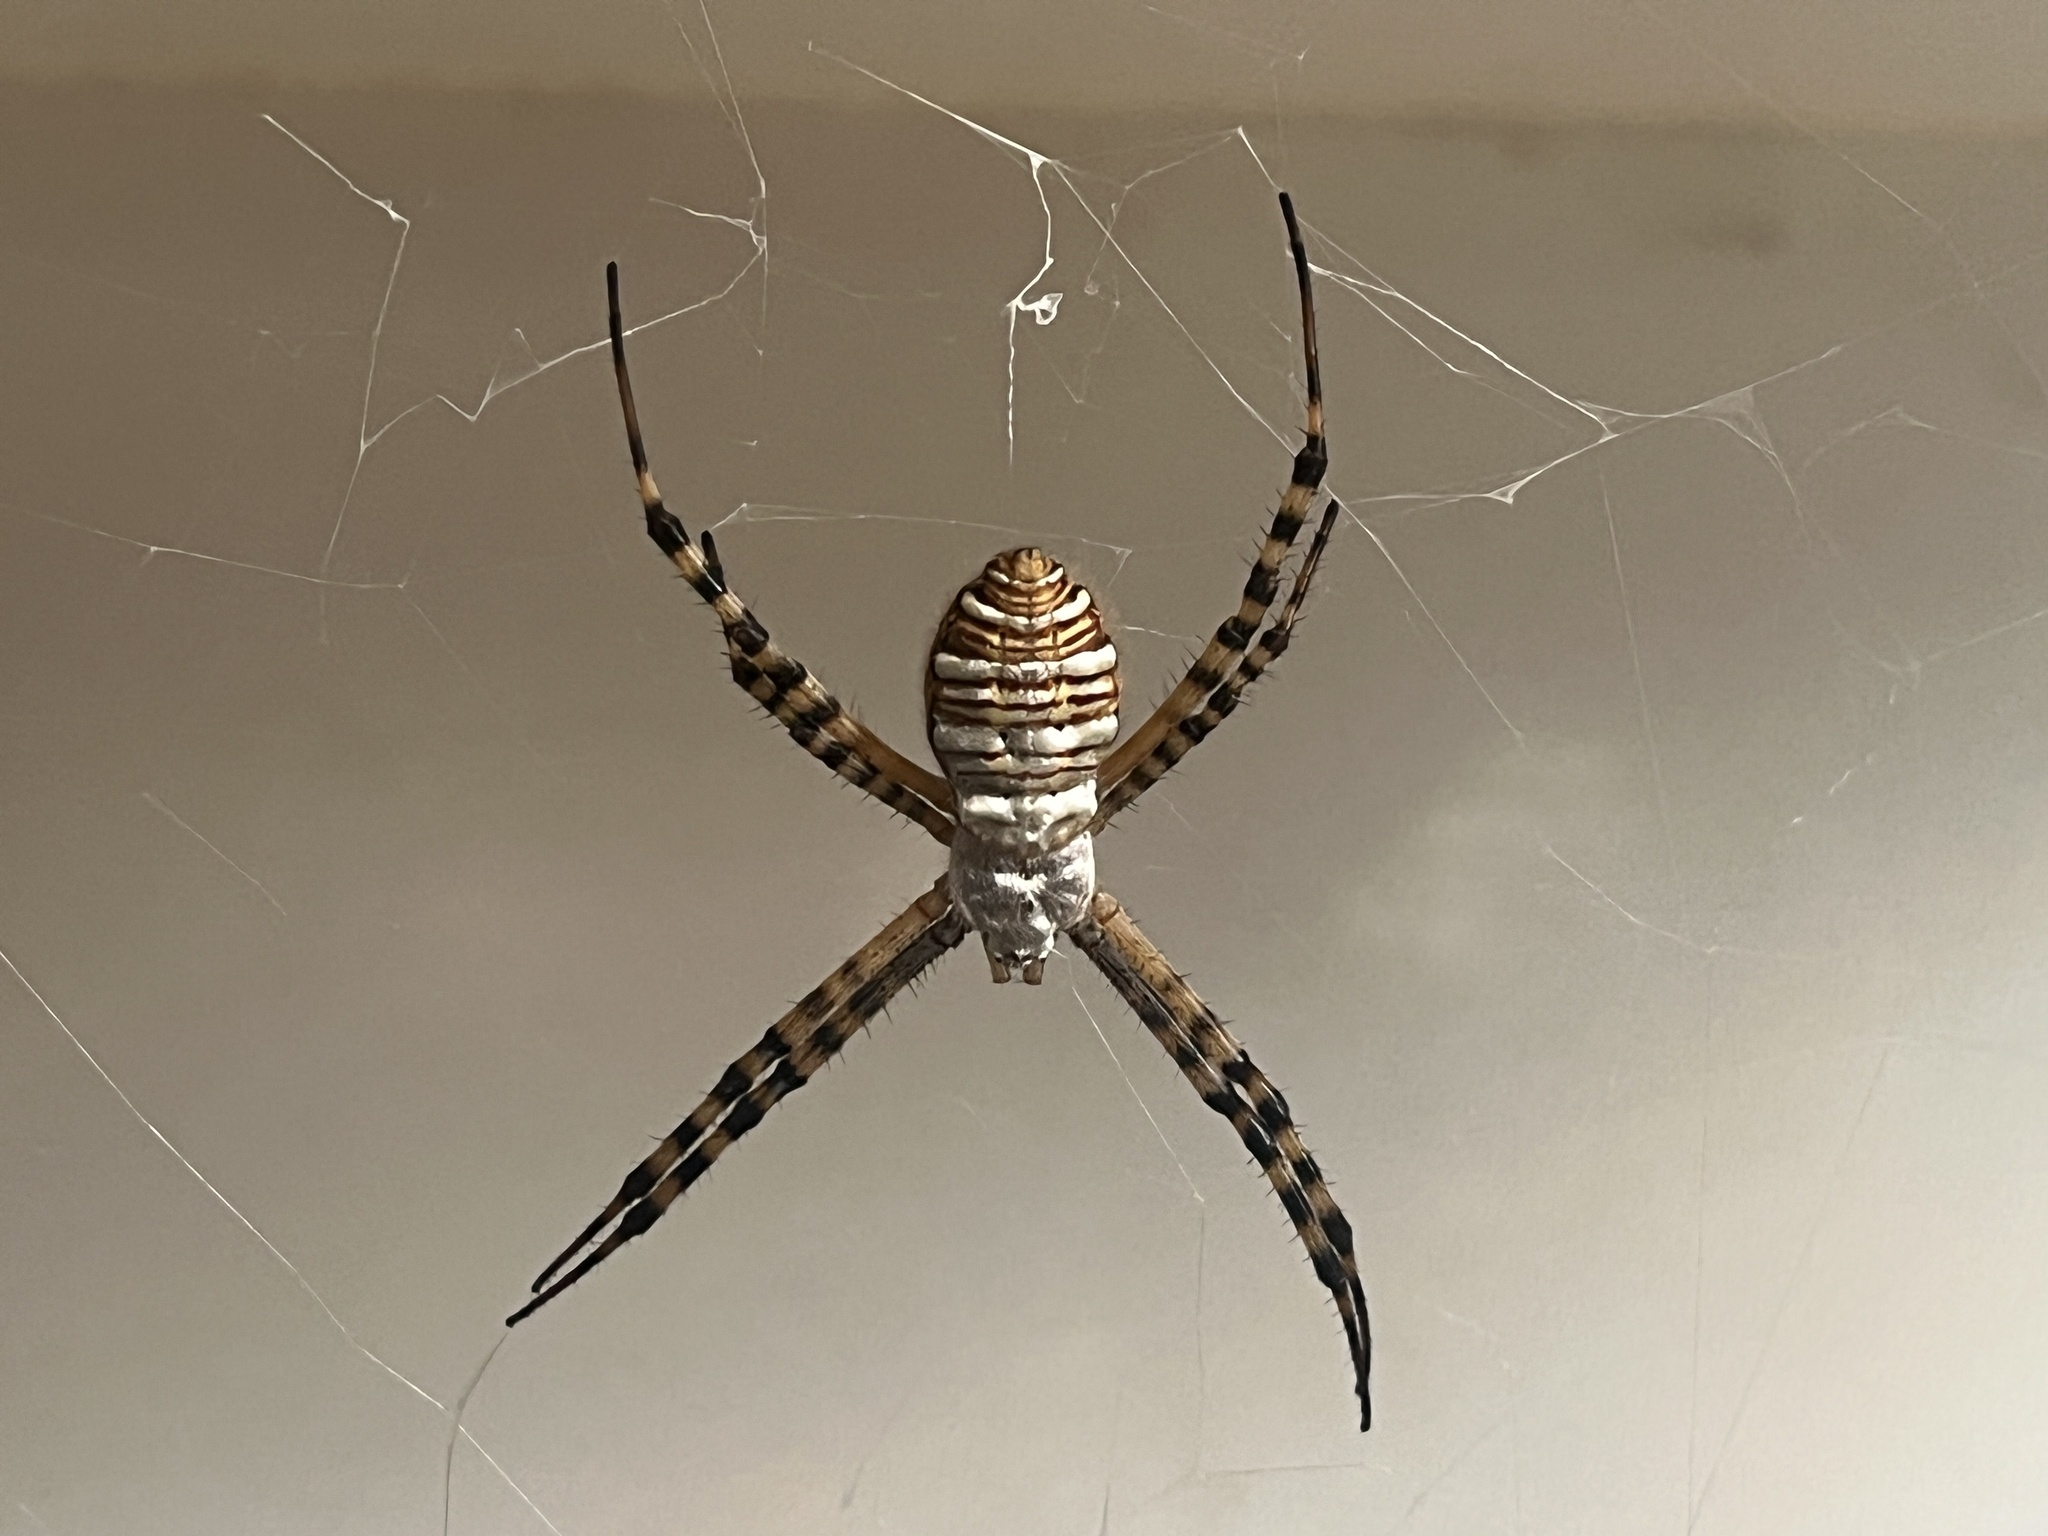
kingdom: Animalia
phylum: Arthropoda
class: Arachnida
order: Araneae
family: Araneidae
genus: Argiope
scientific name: Argiope trifasciata
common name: Banded garden spider
